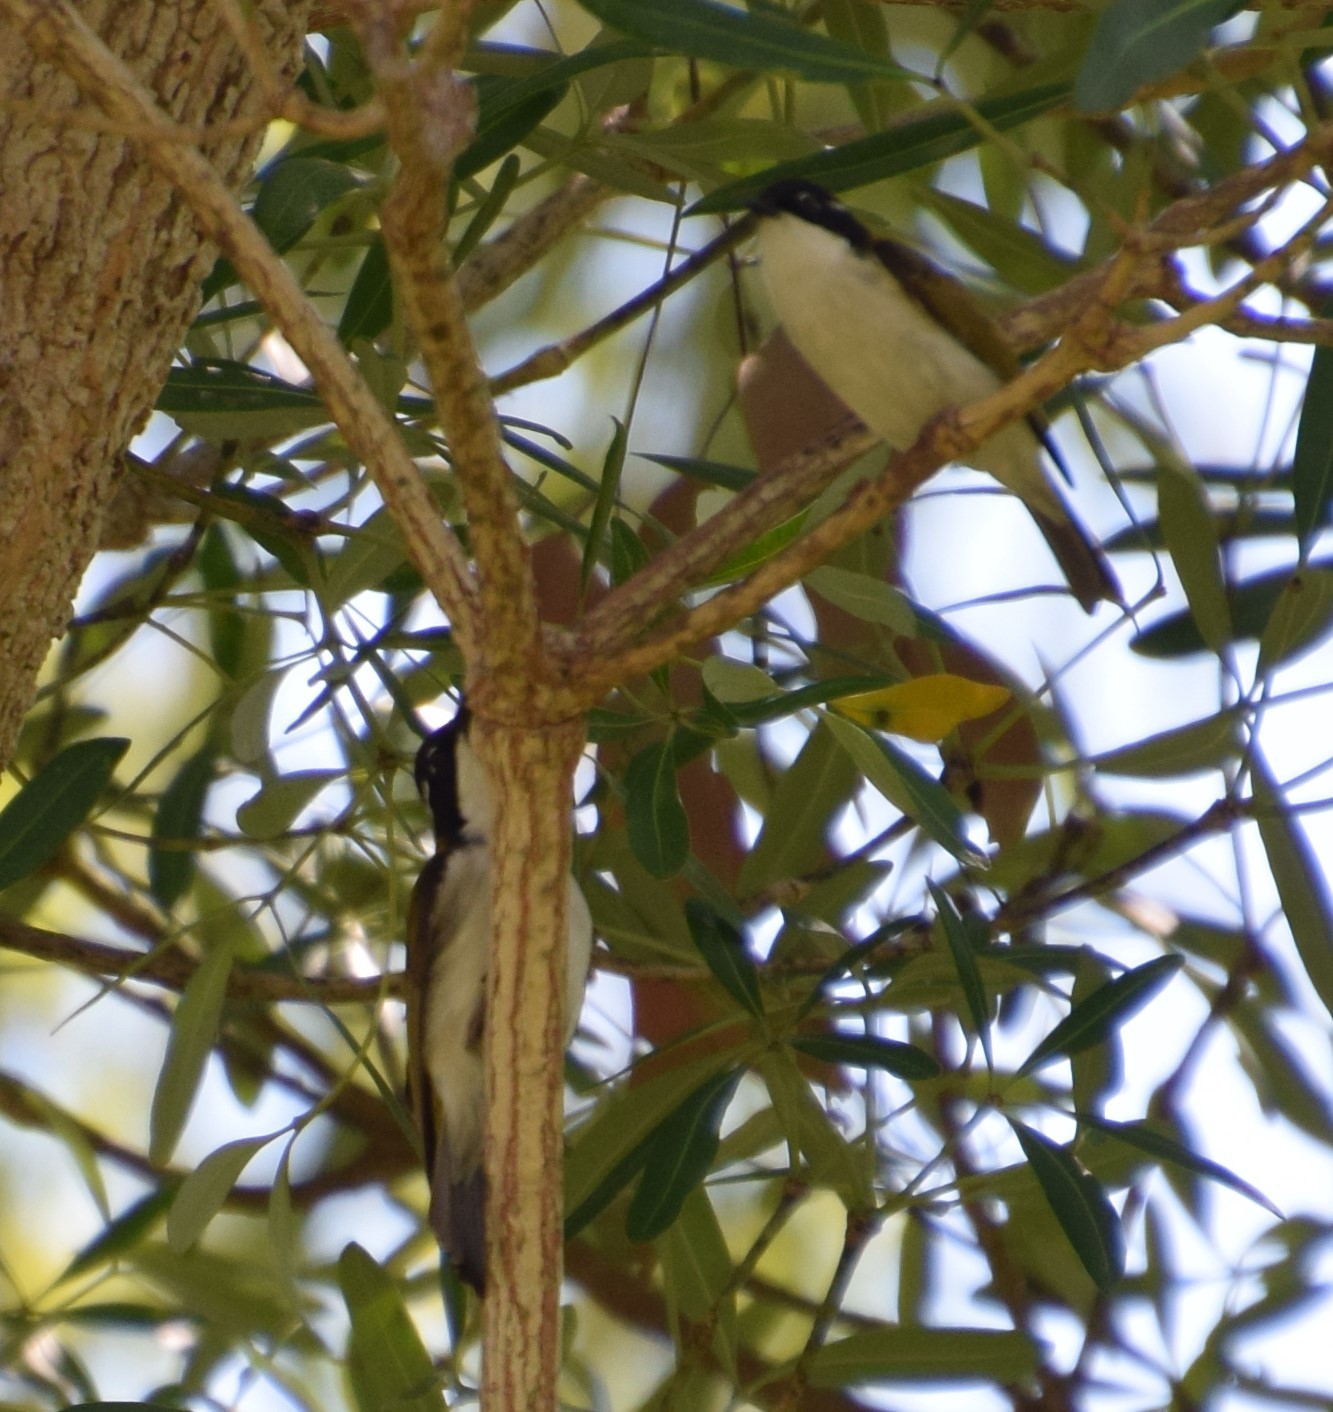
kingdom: Animalia
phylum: Chordata
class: Aves
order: Passeriformes
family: Meliphagidae
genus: Melithreptus
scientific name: Melithreptus albogularis
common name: White-throated honeyeater
